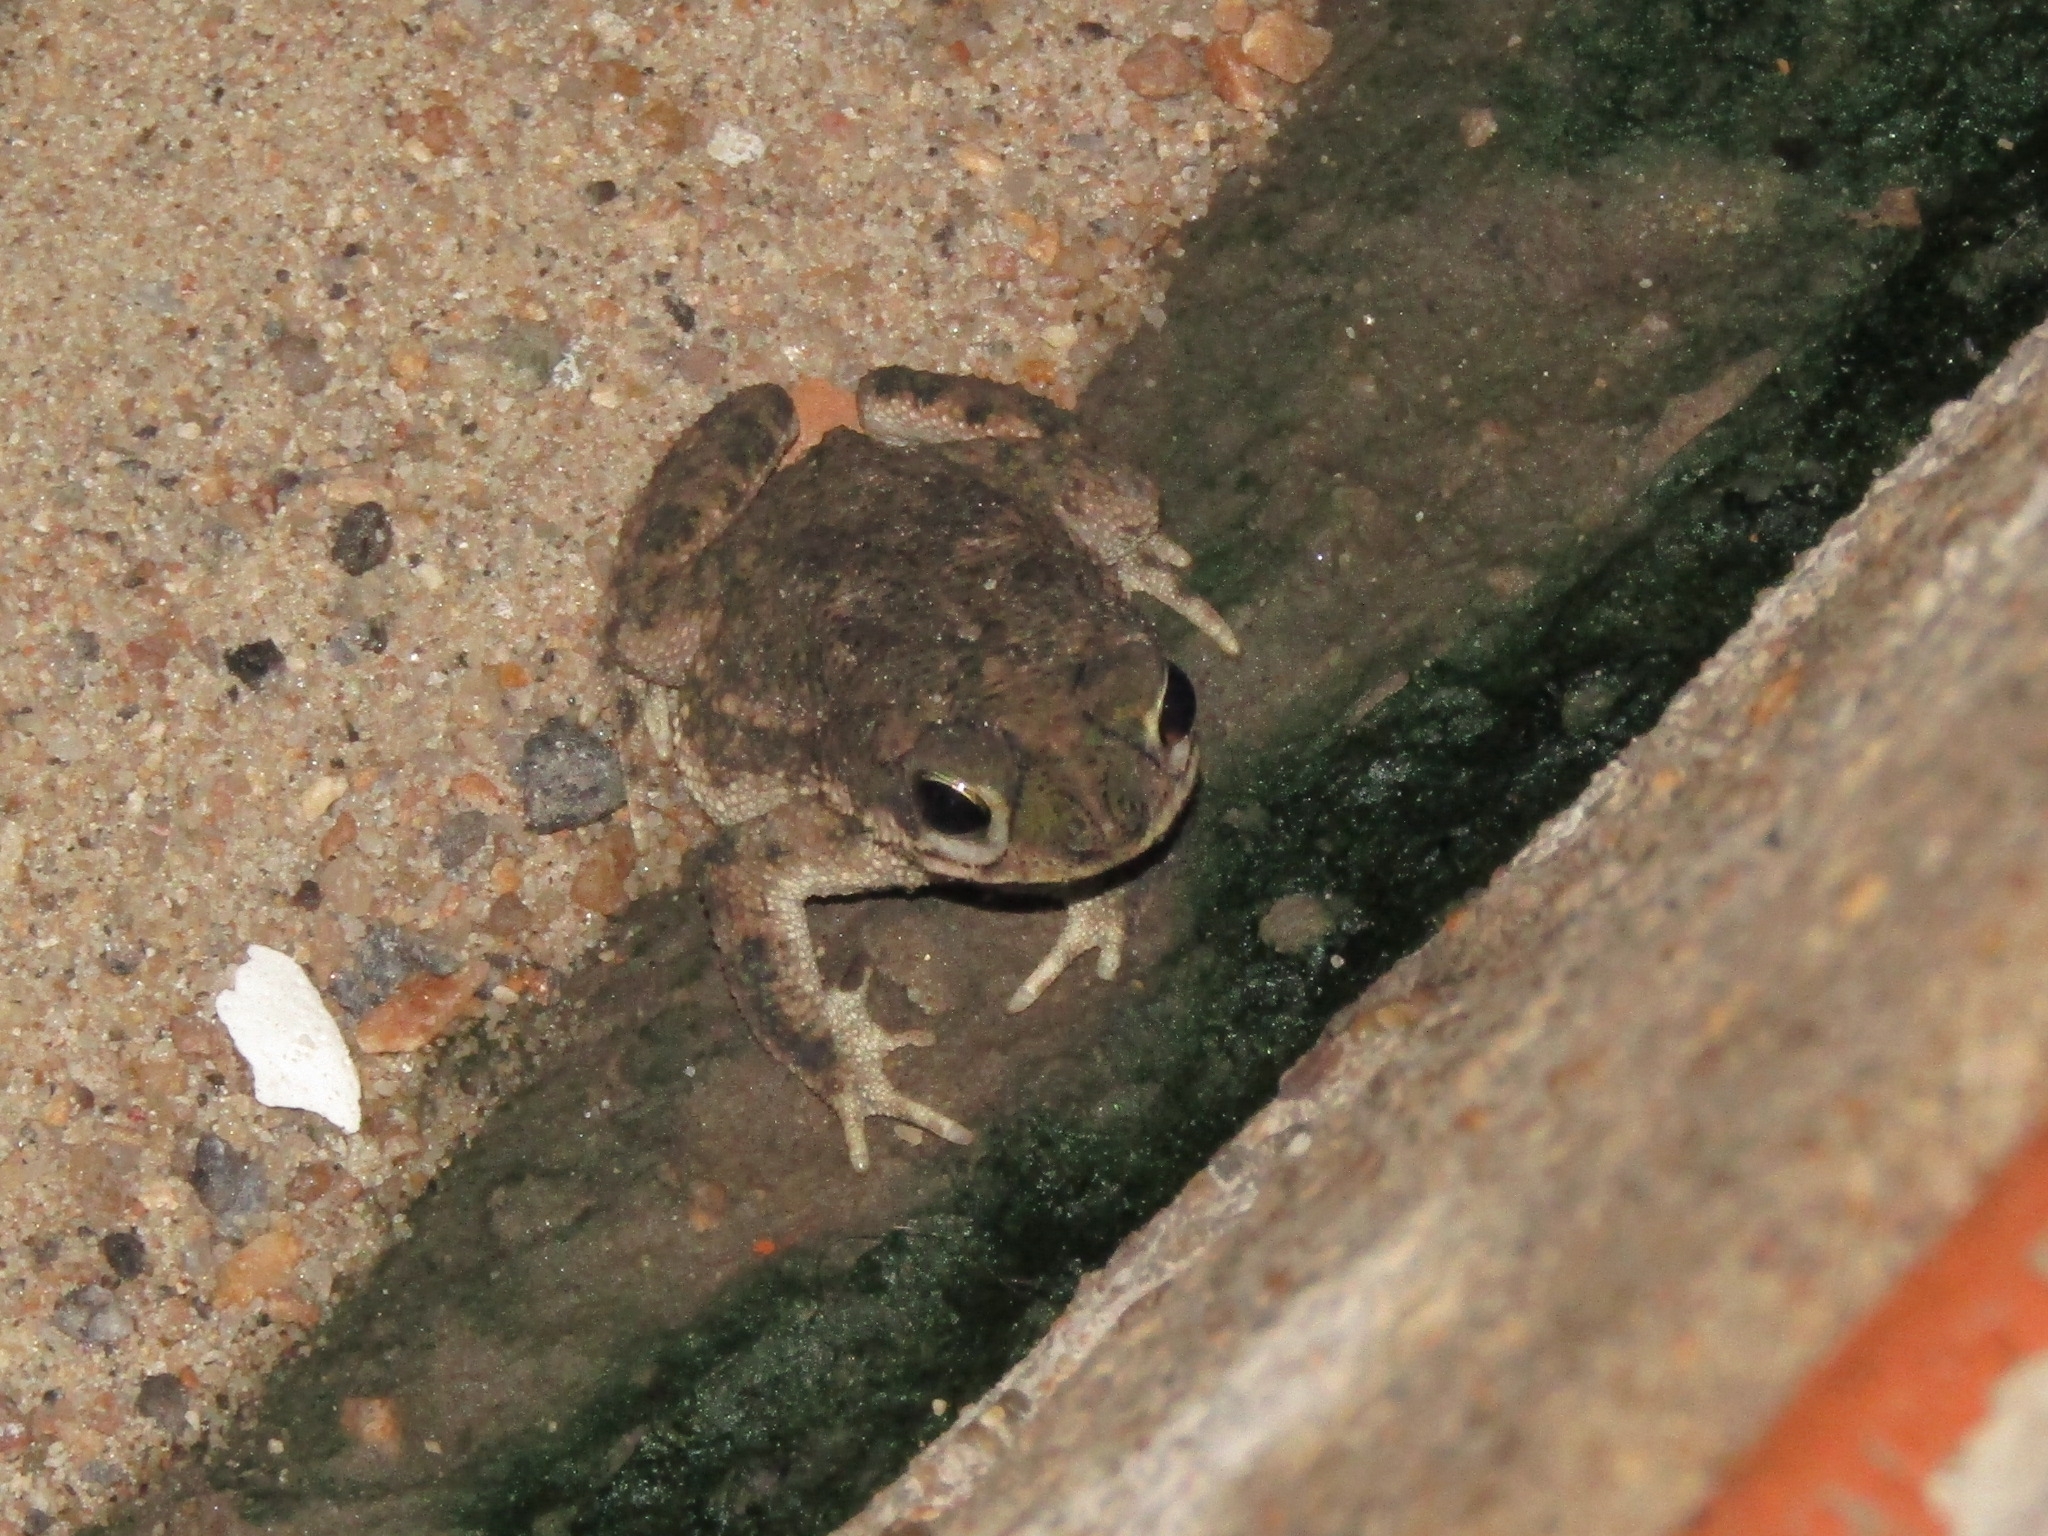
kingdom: Animalia
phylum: Chordata
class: Amphibia
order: Anura
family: Bufonidae
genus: Rhinella
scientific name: Rhinella granulosa
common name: Common lesser toad
